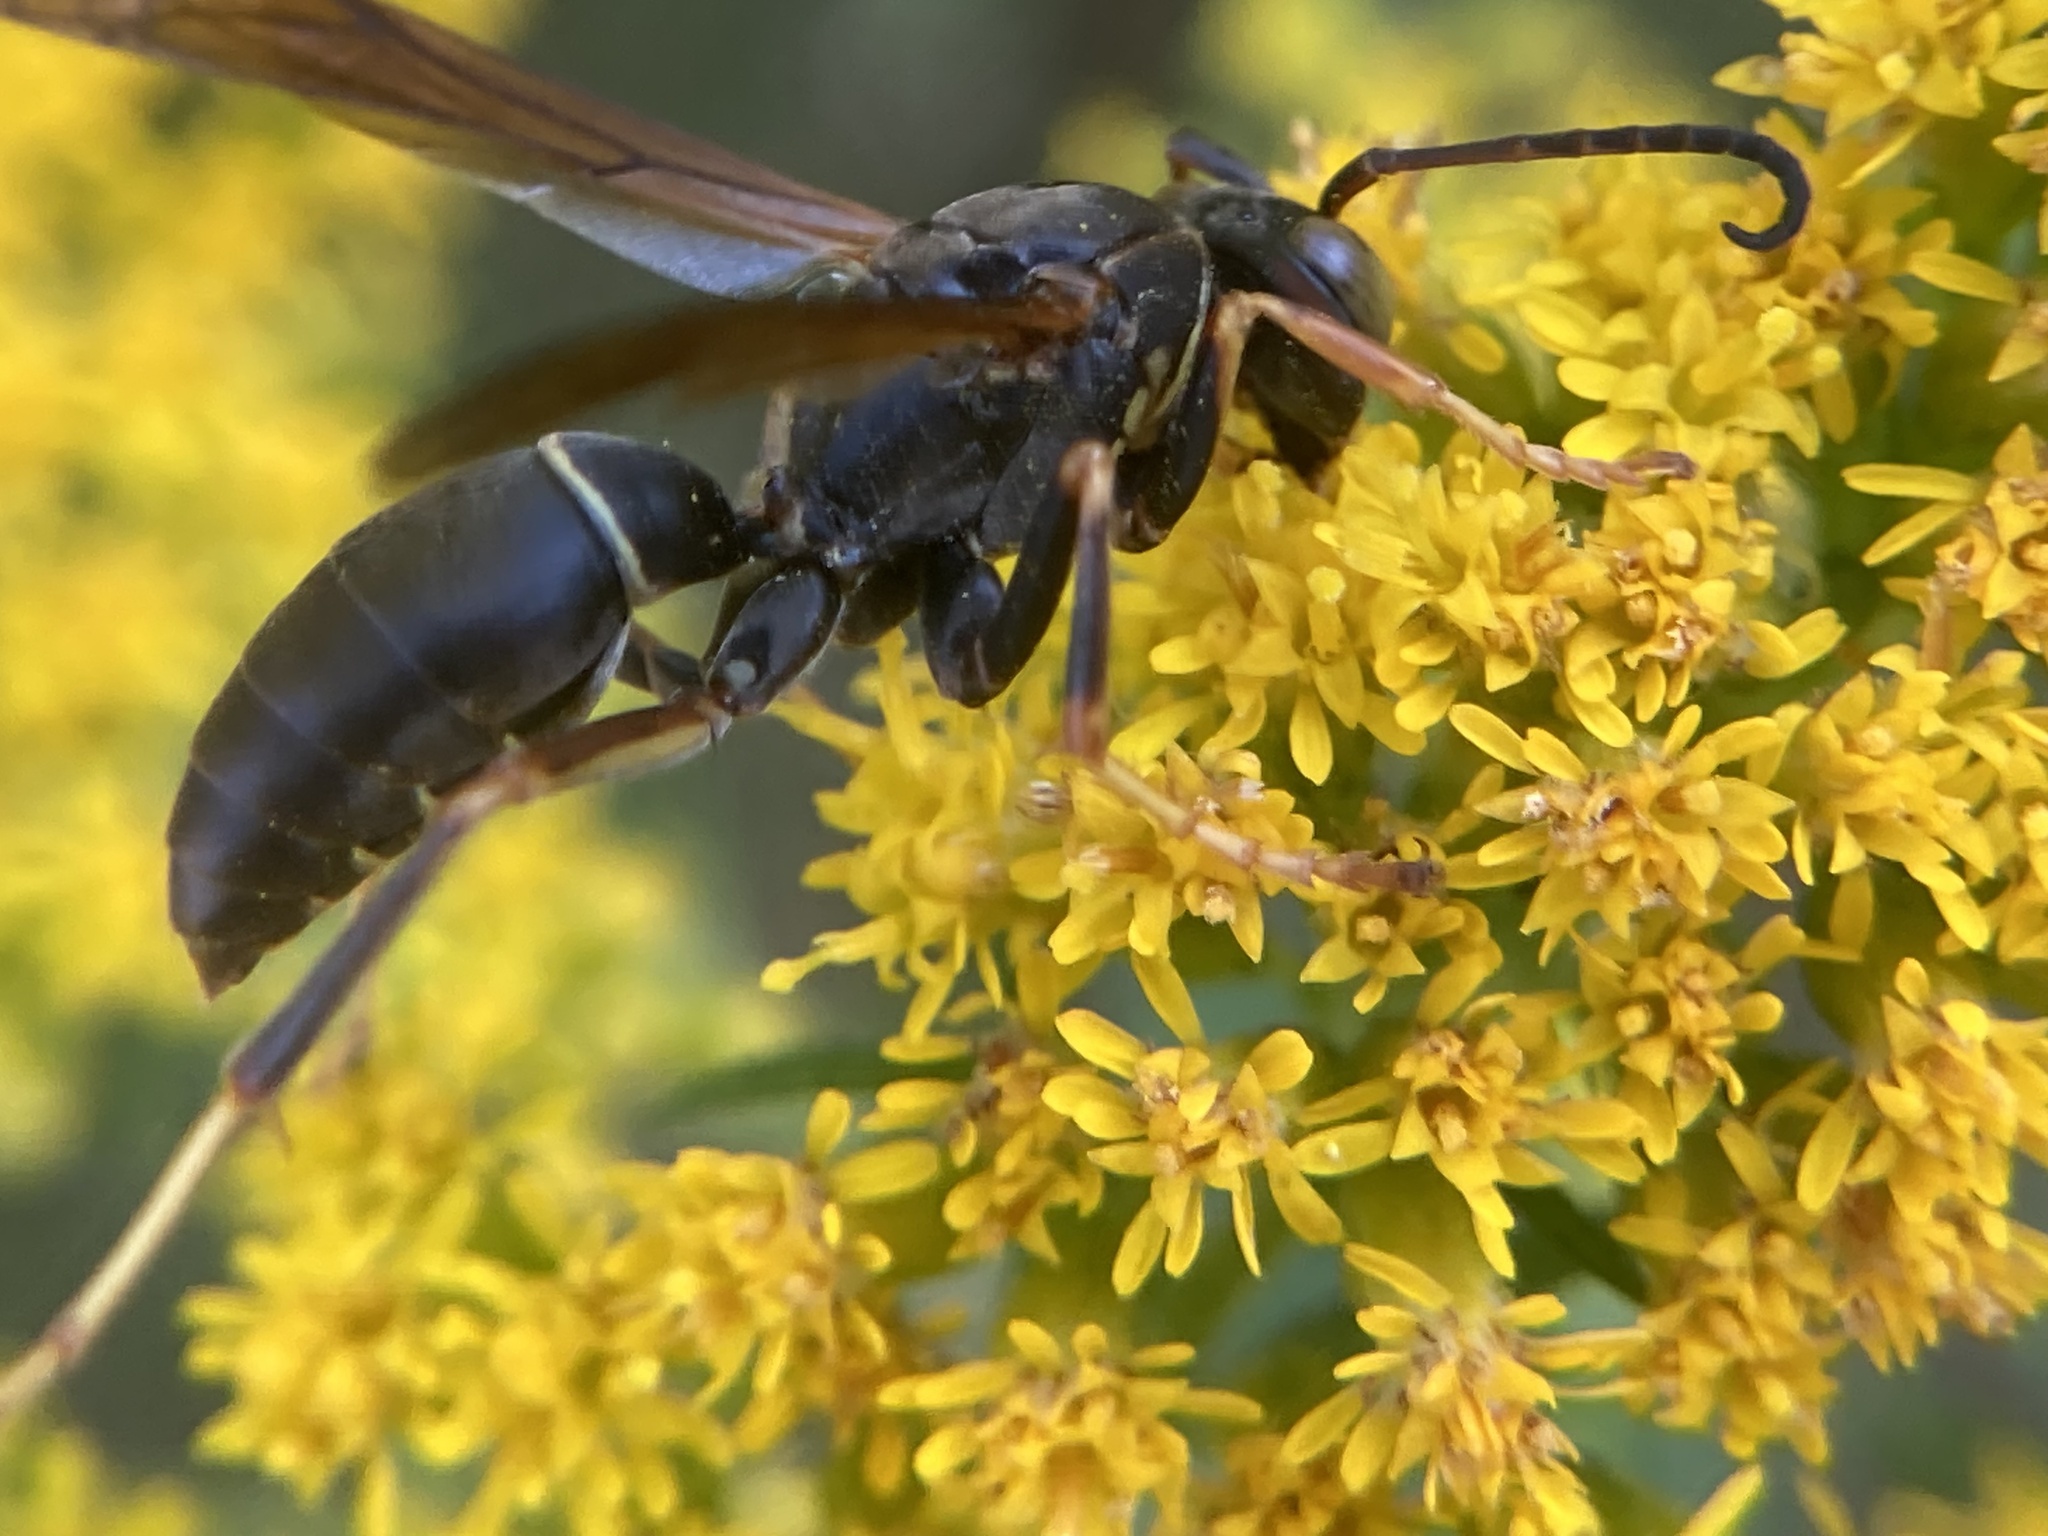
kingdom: Animalia
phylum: Arthropoda
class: Insecta
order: Hymenoptera
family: Eumenidae
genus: Polistes
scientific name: Polistes fuscatus
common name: Dark paper wasp
